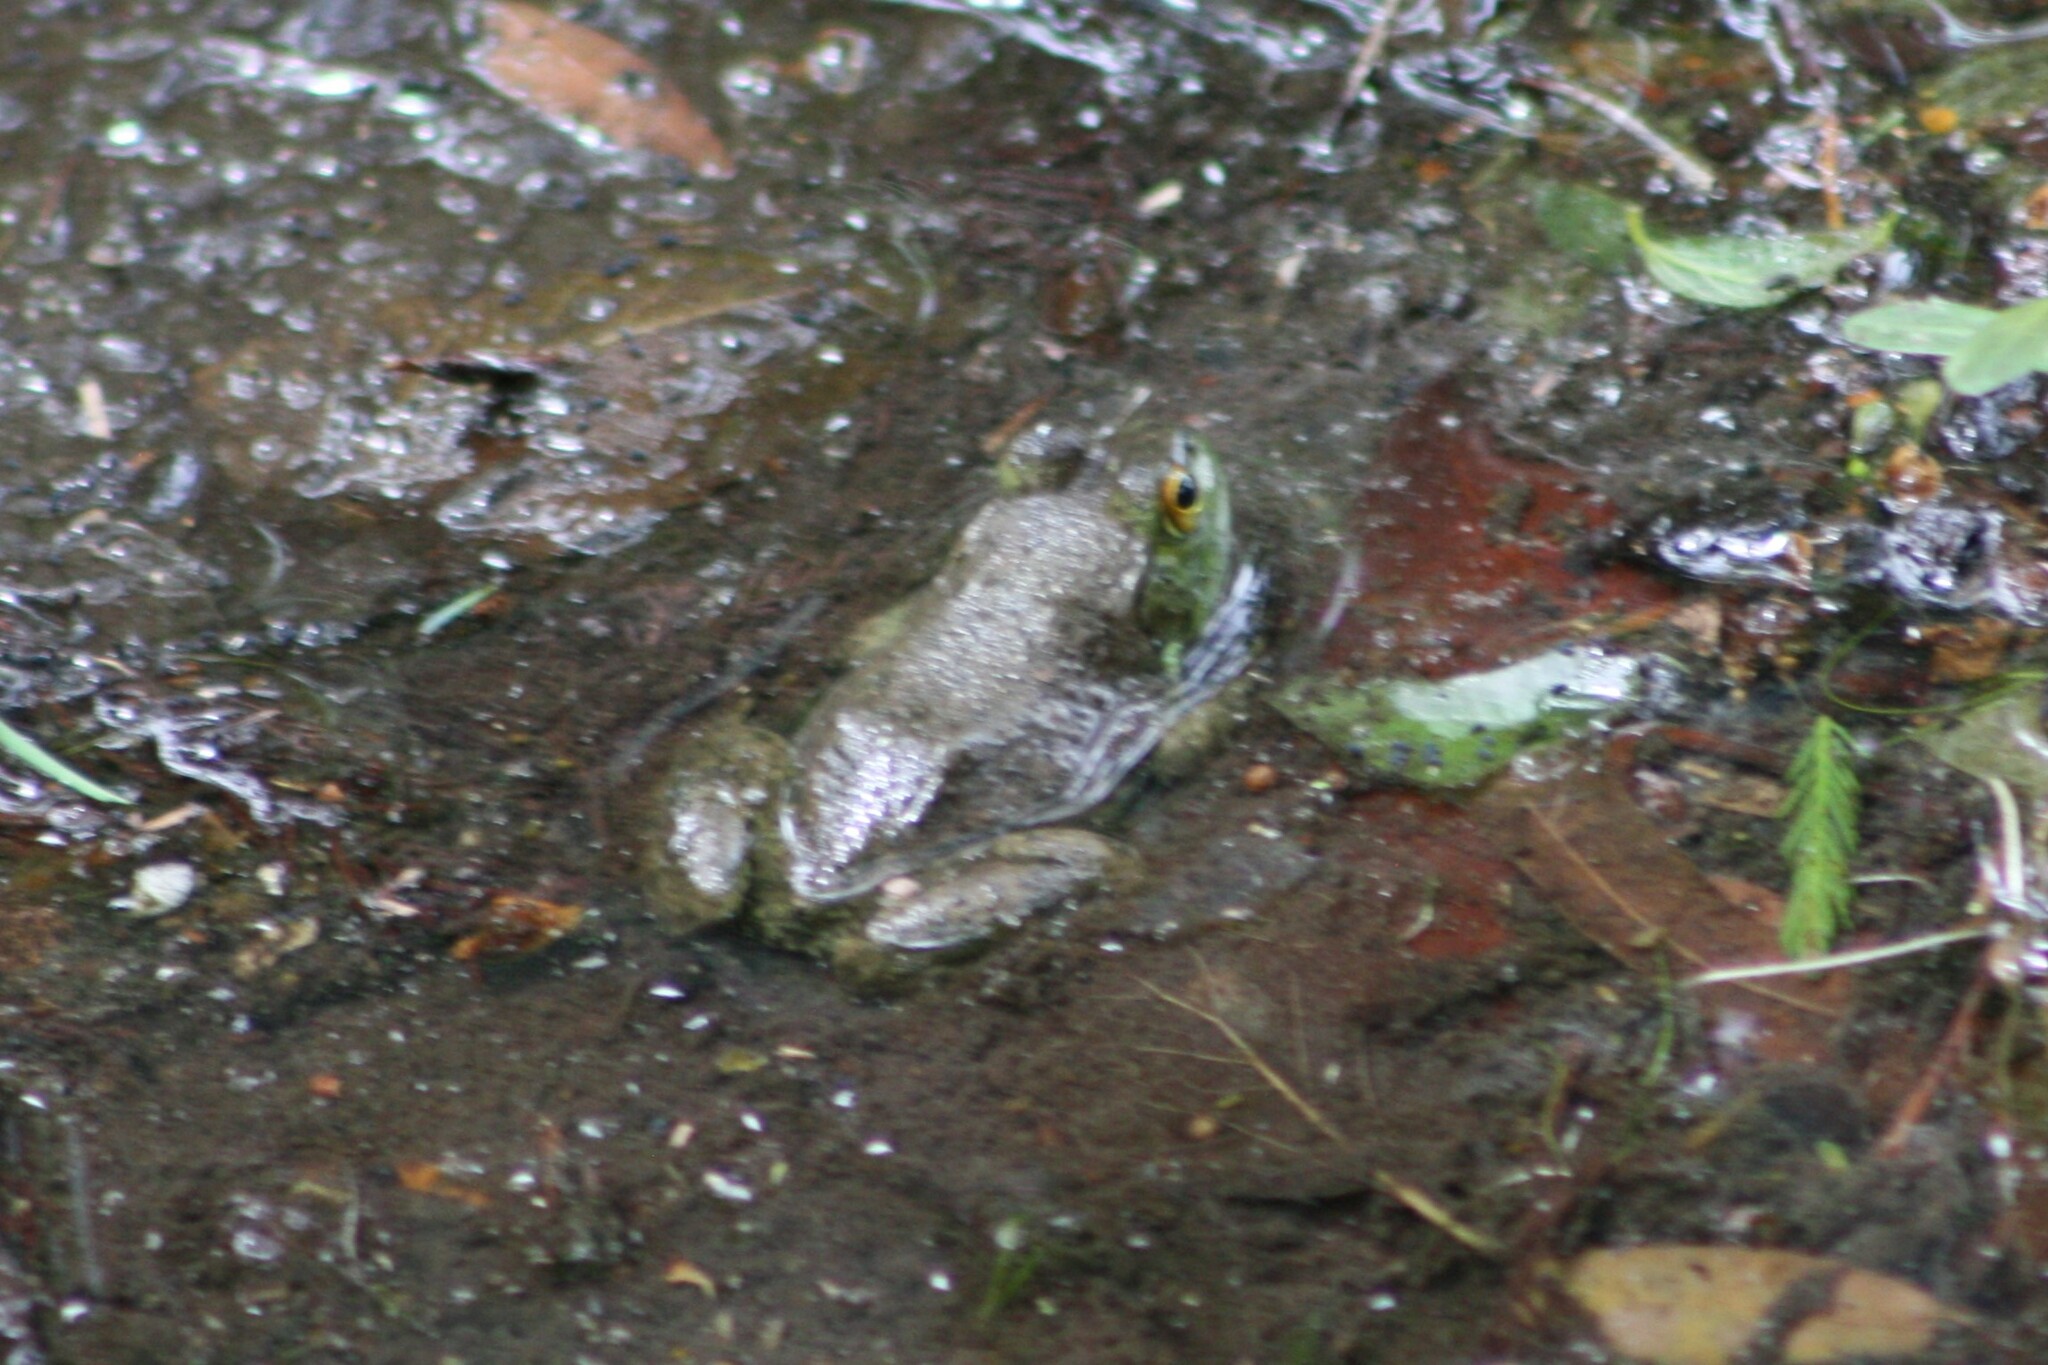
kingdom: Animalia
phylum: Chordata
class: Amphibia
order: Anura
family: Ranidae
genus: Lithobates
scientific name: Lithobates catesbeianus
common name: American bullfrog
